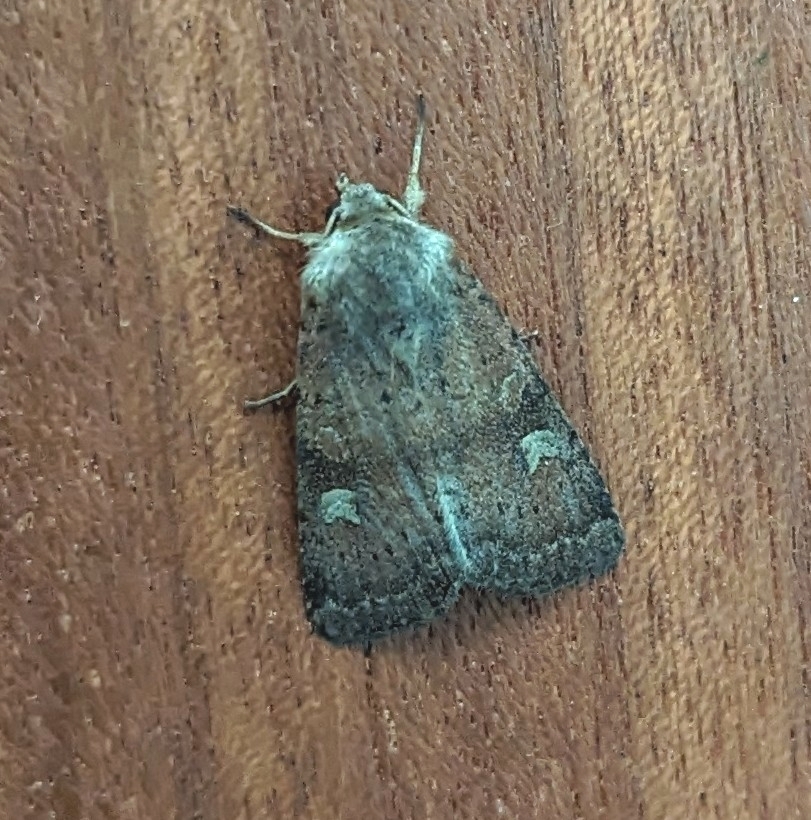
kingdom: Animalia
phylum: Arthropoda
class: Insecta
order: Lepidoptera
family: Noctuidae
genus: Xestia
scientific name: Xestia xanthographa
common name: Square-spot rustic
